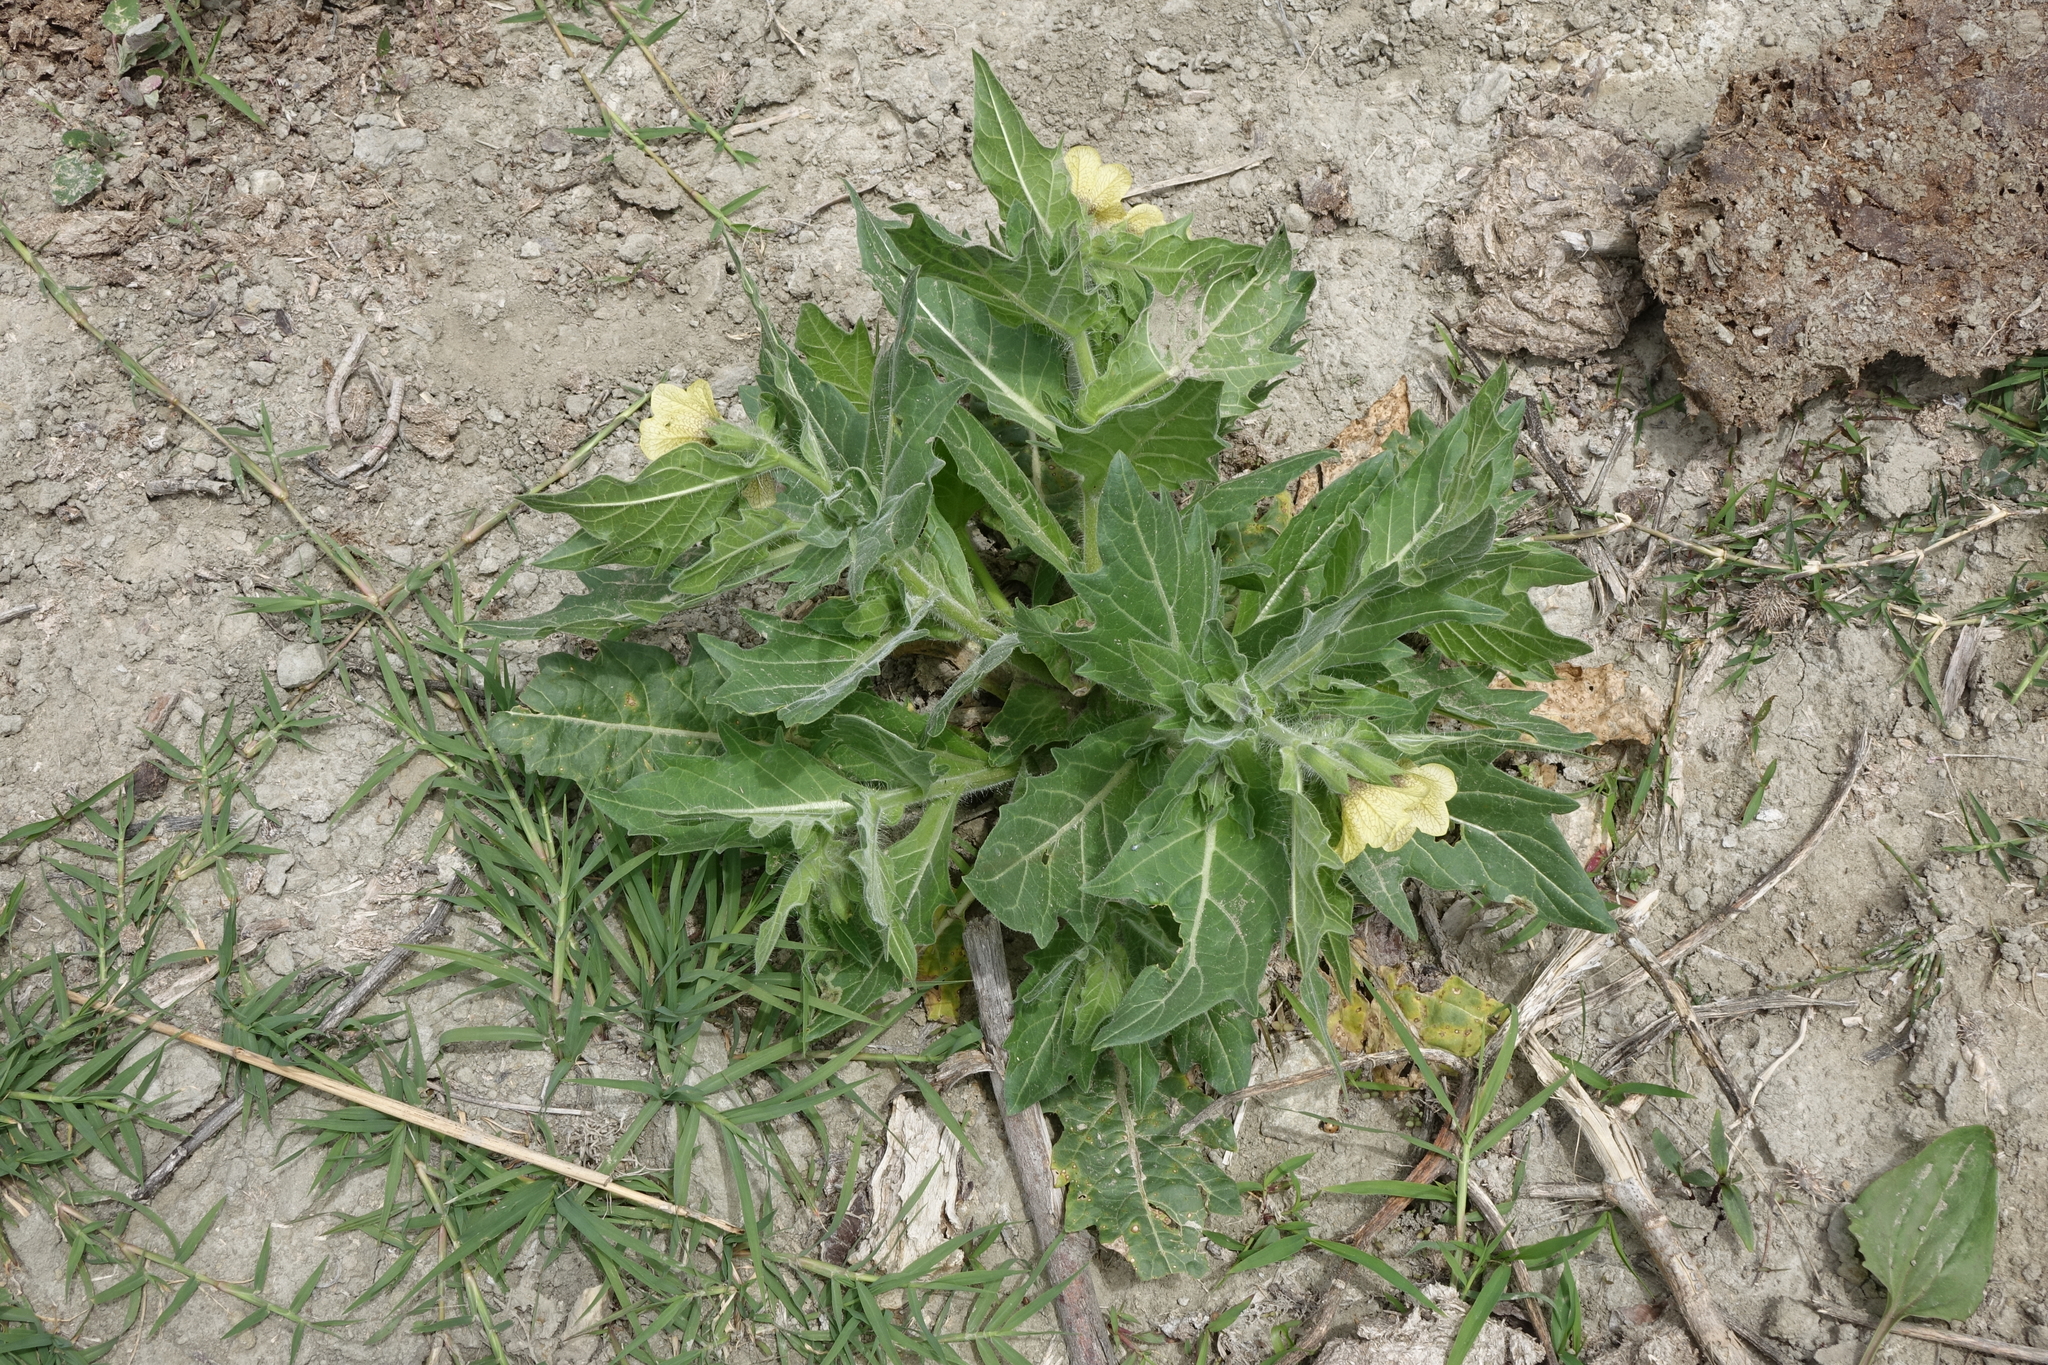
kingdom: Plantae
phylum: Tracheophyta
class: Magnoliopsida
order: Solanales
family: Solanaceae
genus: Hyoscyamus
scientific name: Hyoscyamus niger
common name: Henbane
